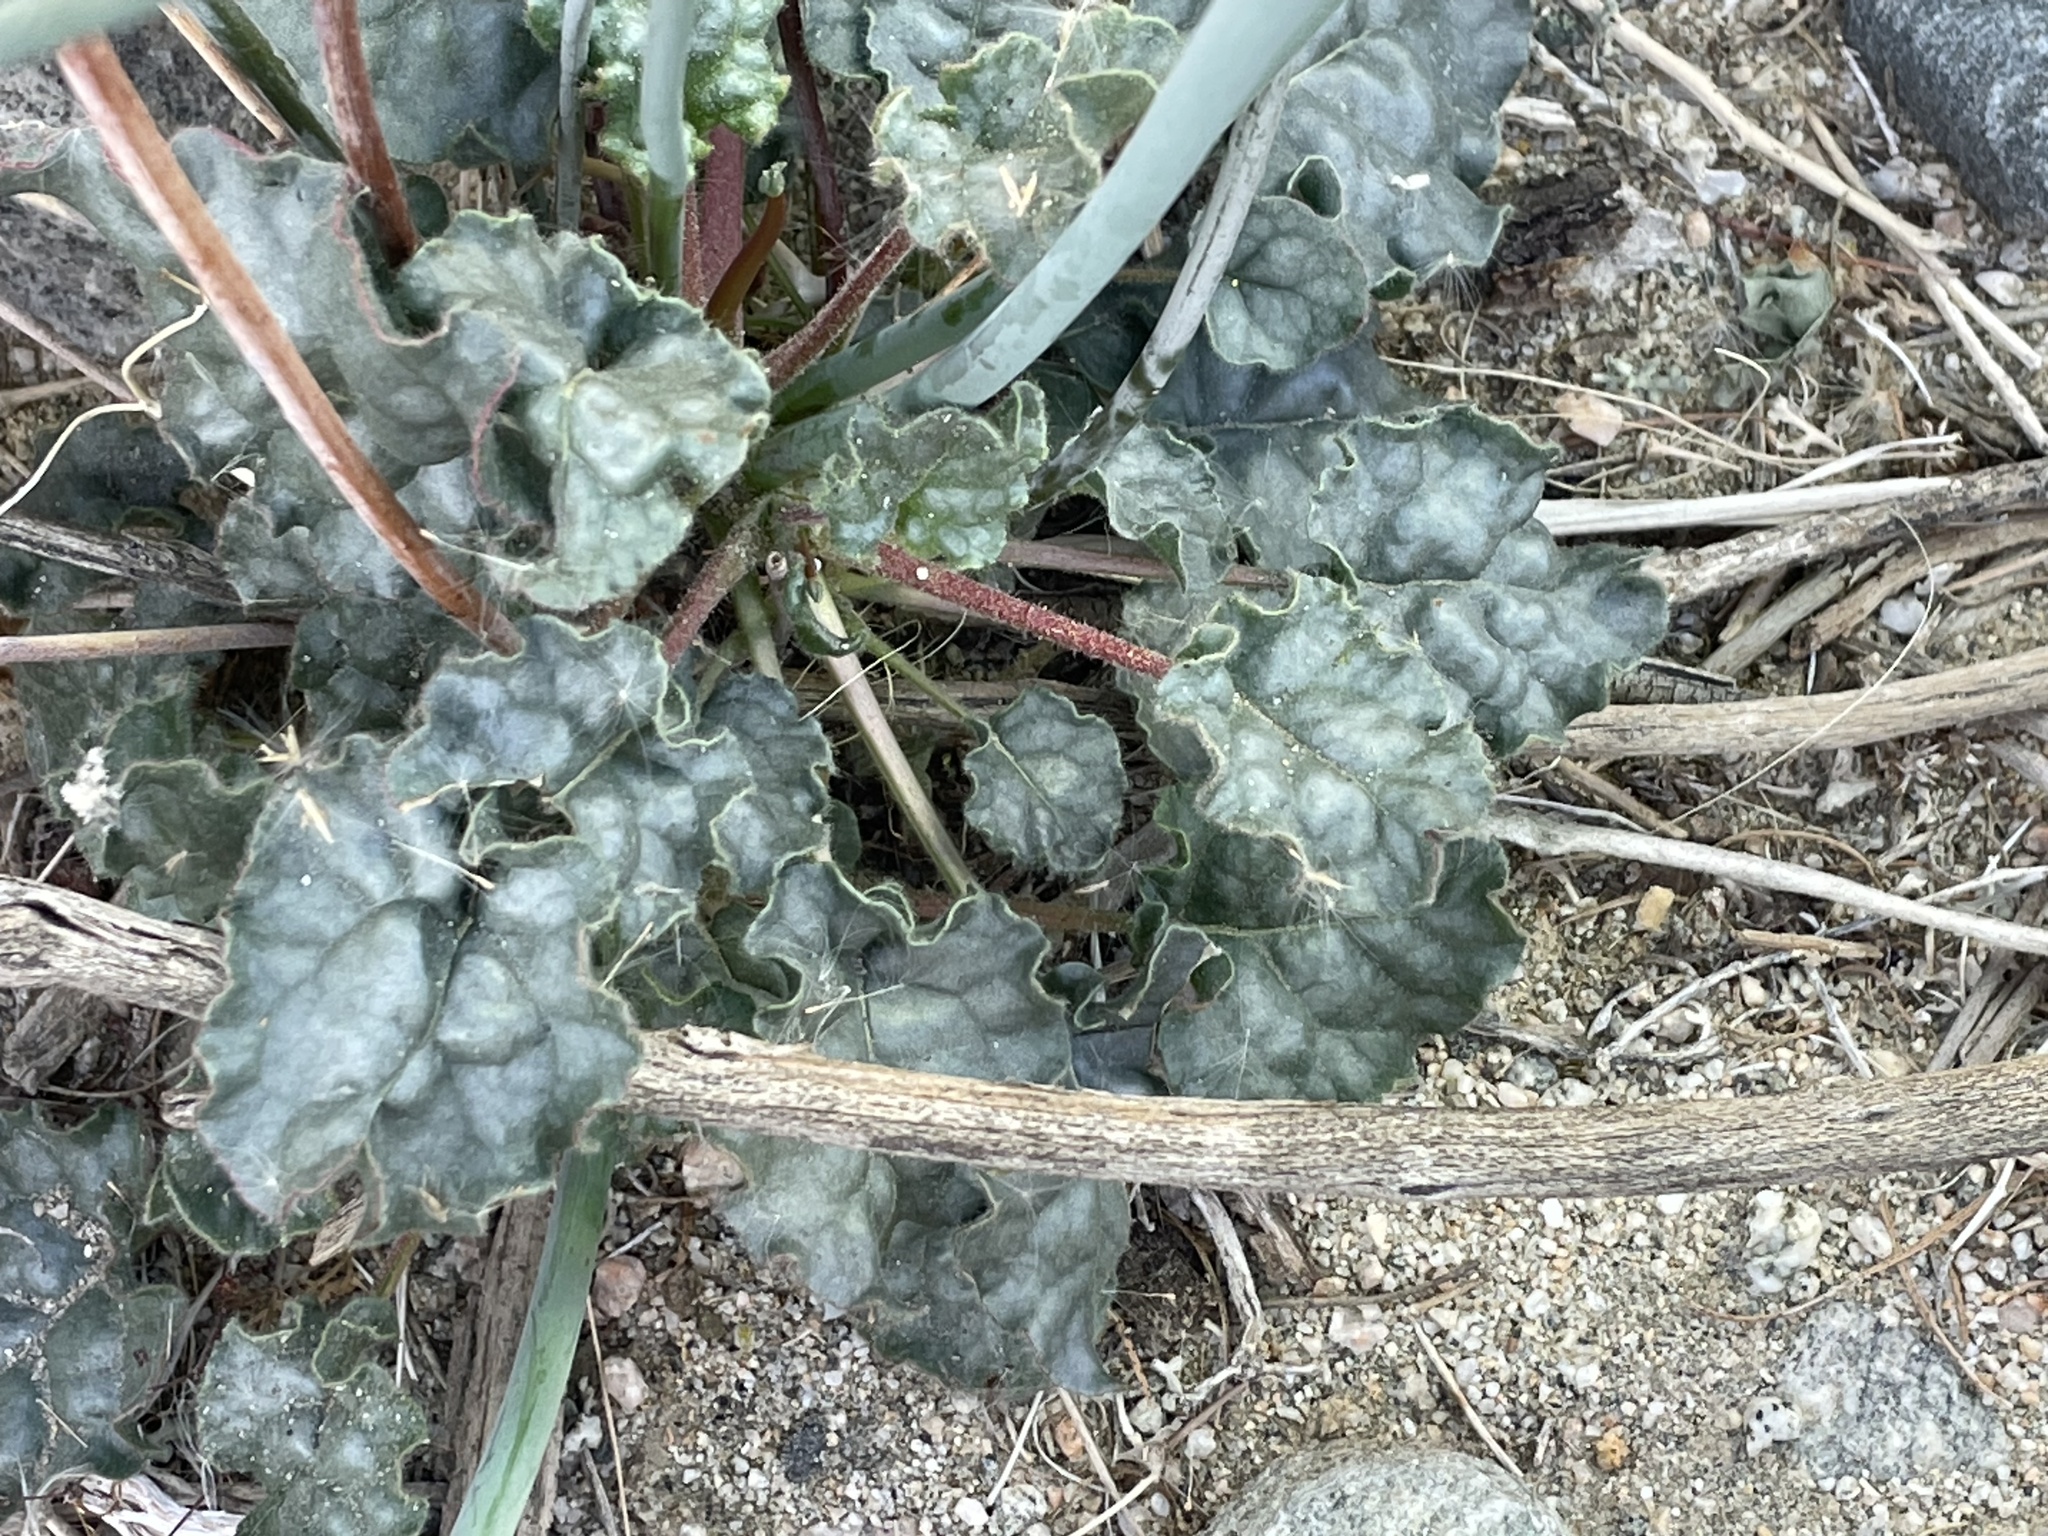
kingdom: Plantae
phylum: Tracheophyta
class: Magnoliopsida
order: Caryophyllales
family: Polygonaceae
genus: Eriogonum
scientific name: Eriogonum inflatum
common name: Desert trumpet
